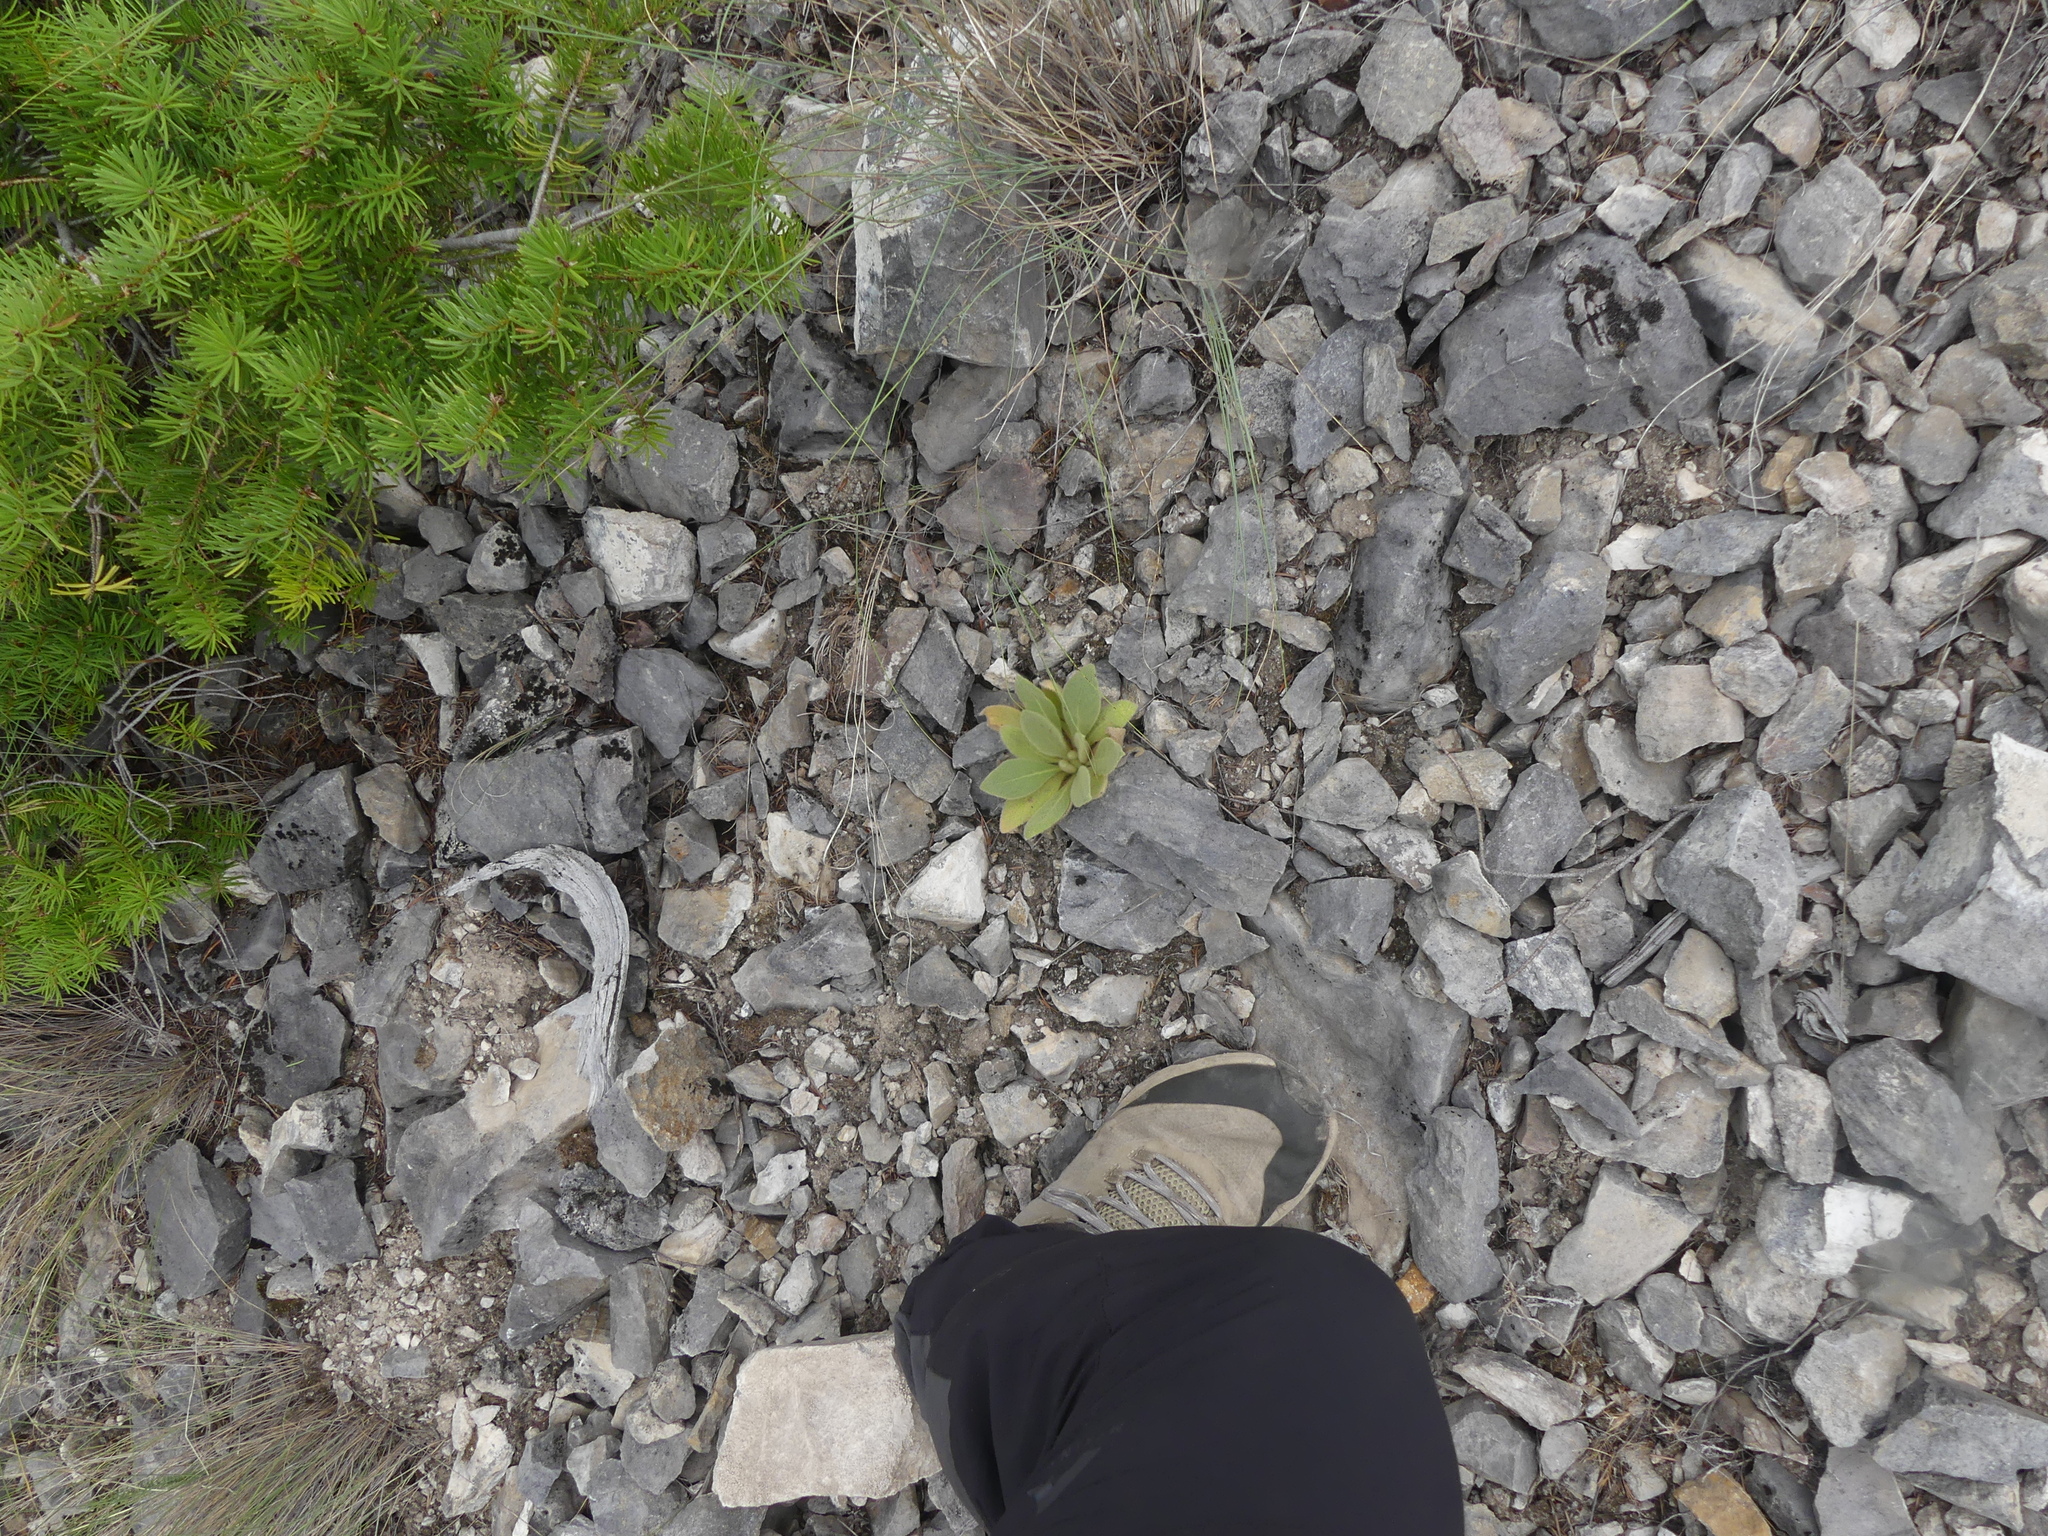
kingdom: Plantae
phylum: Tracheophyta
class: Magnoliopsida
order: Lamiales
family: Scrophulariaceae
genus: Verbascum
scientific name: Verbascum thapsus
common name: Common mullein
